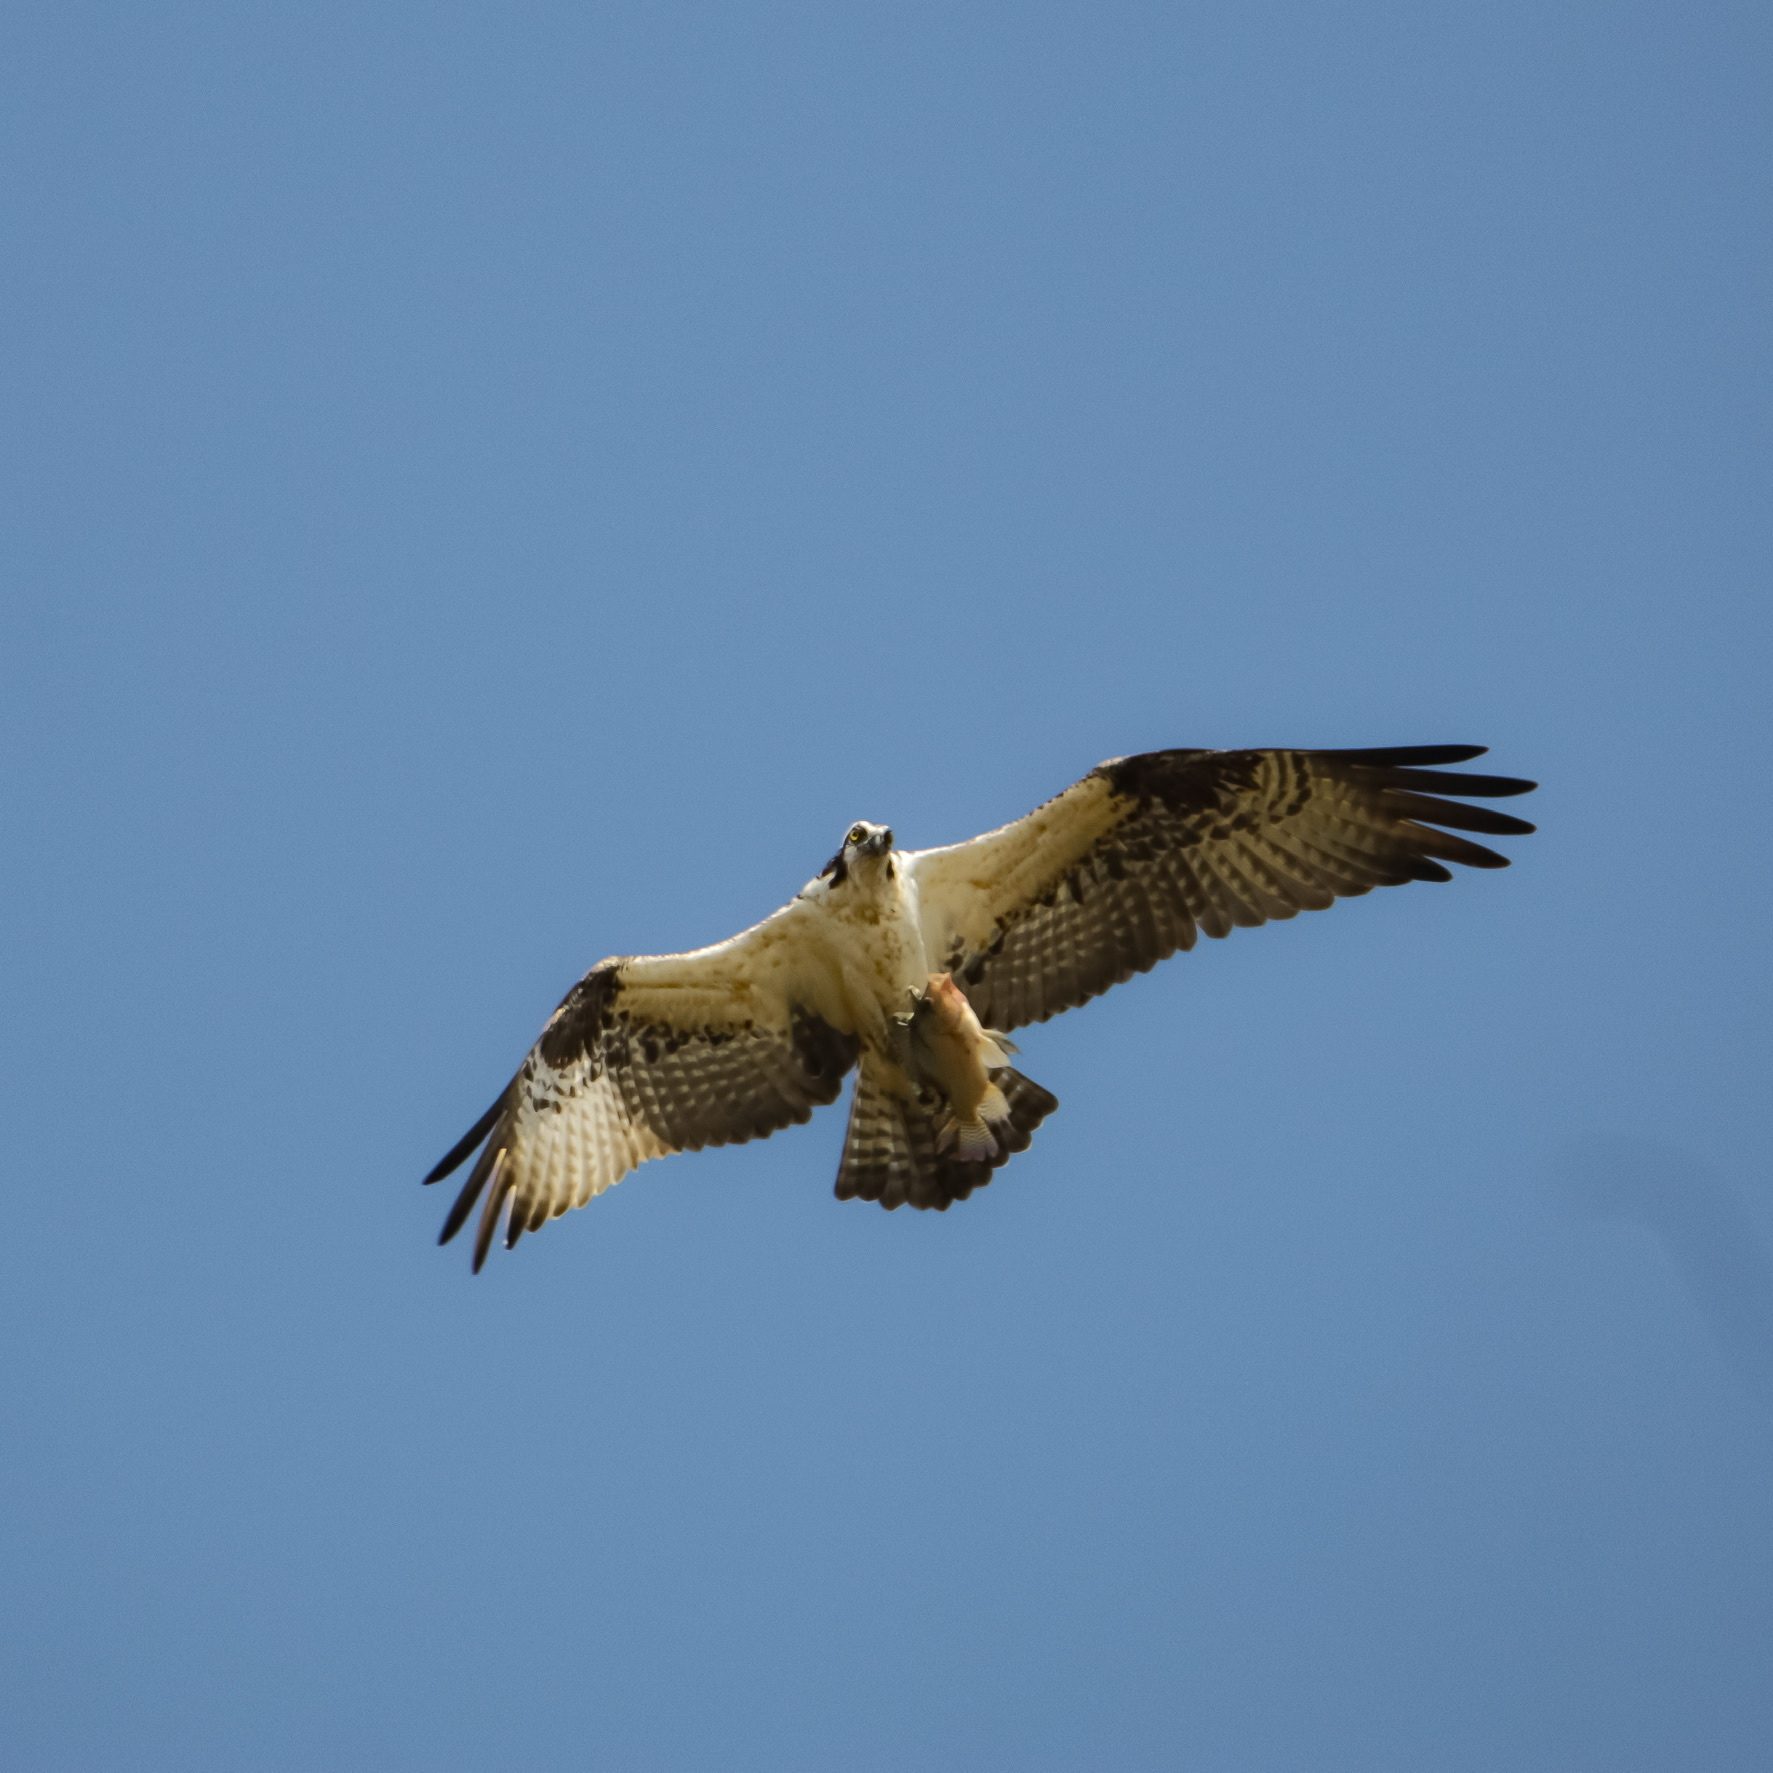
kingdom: Animalia
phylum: Chordata
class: Aves
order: Accipitriformes
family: Pandionidae
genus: Pandion
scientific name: Pandion haliaetus
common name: Osprey
